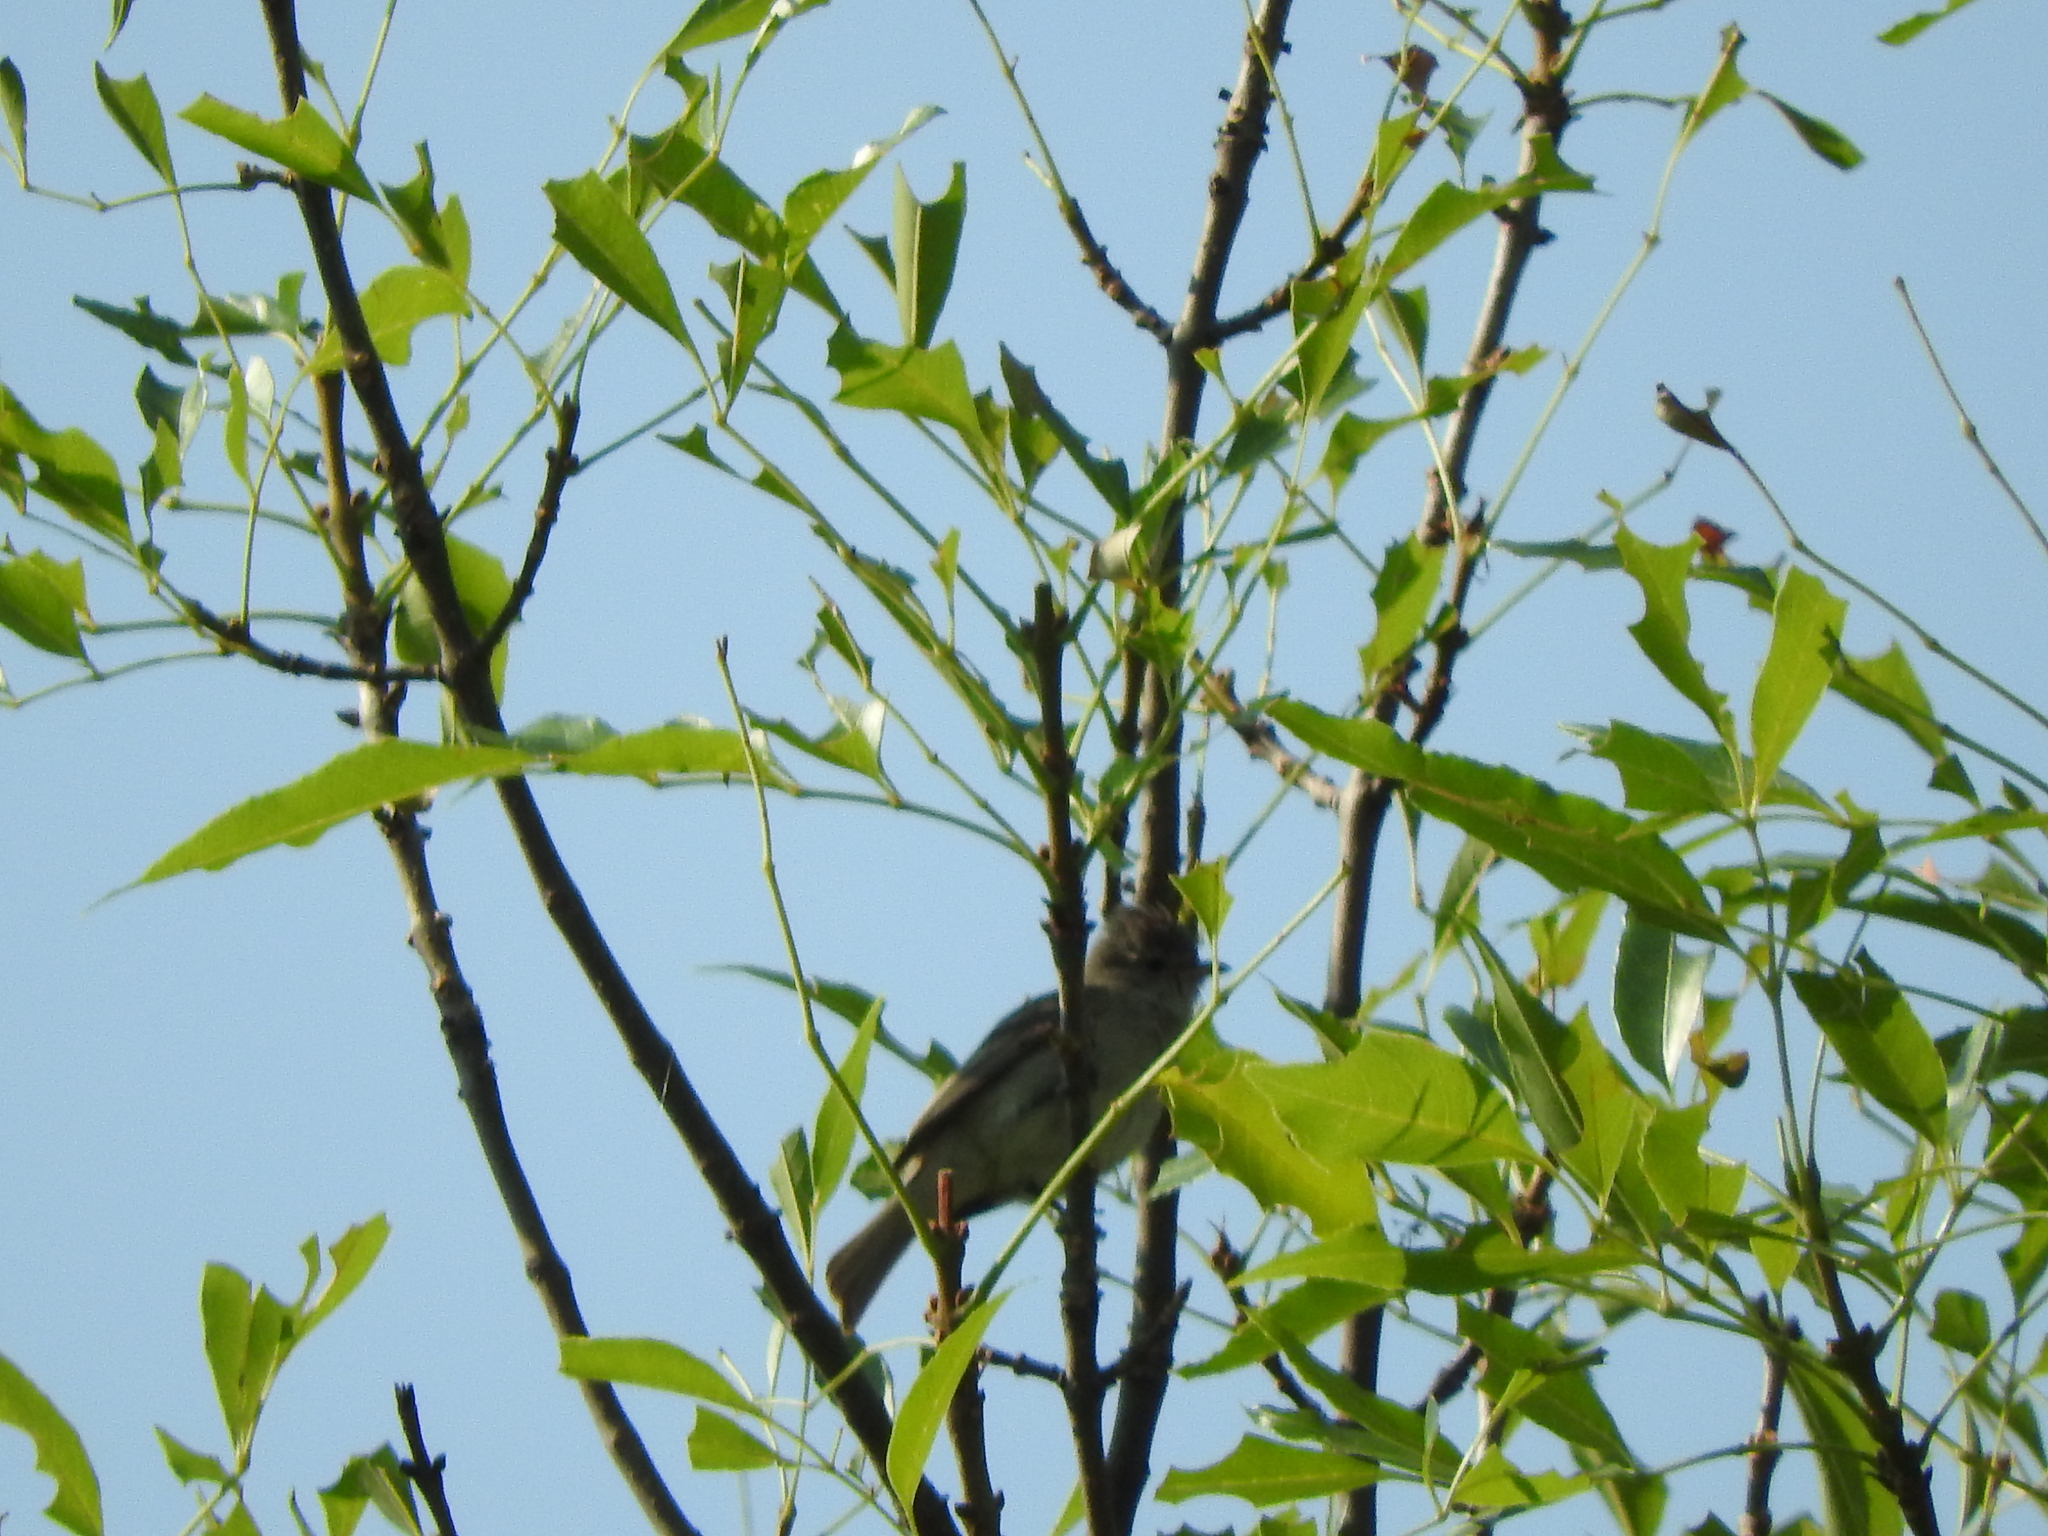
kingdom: Animalia
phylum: Chordata
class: Aves
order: Passeriformes
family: Tyrannidae
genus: Camptostoma
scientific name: Camptostoma imberbe
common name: Northern beardless-tyrannulet
